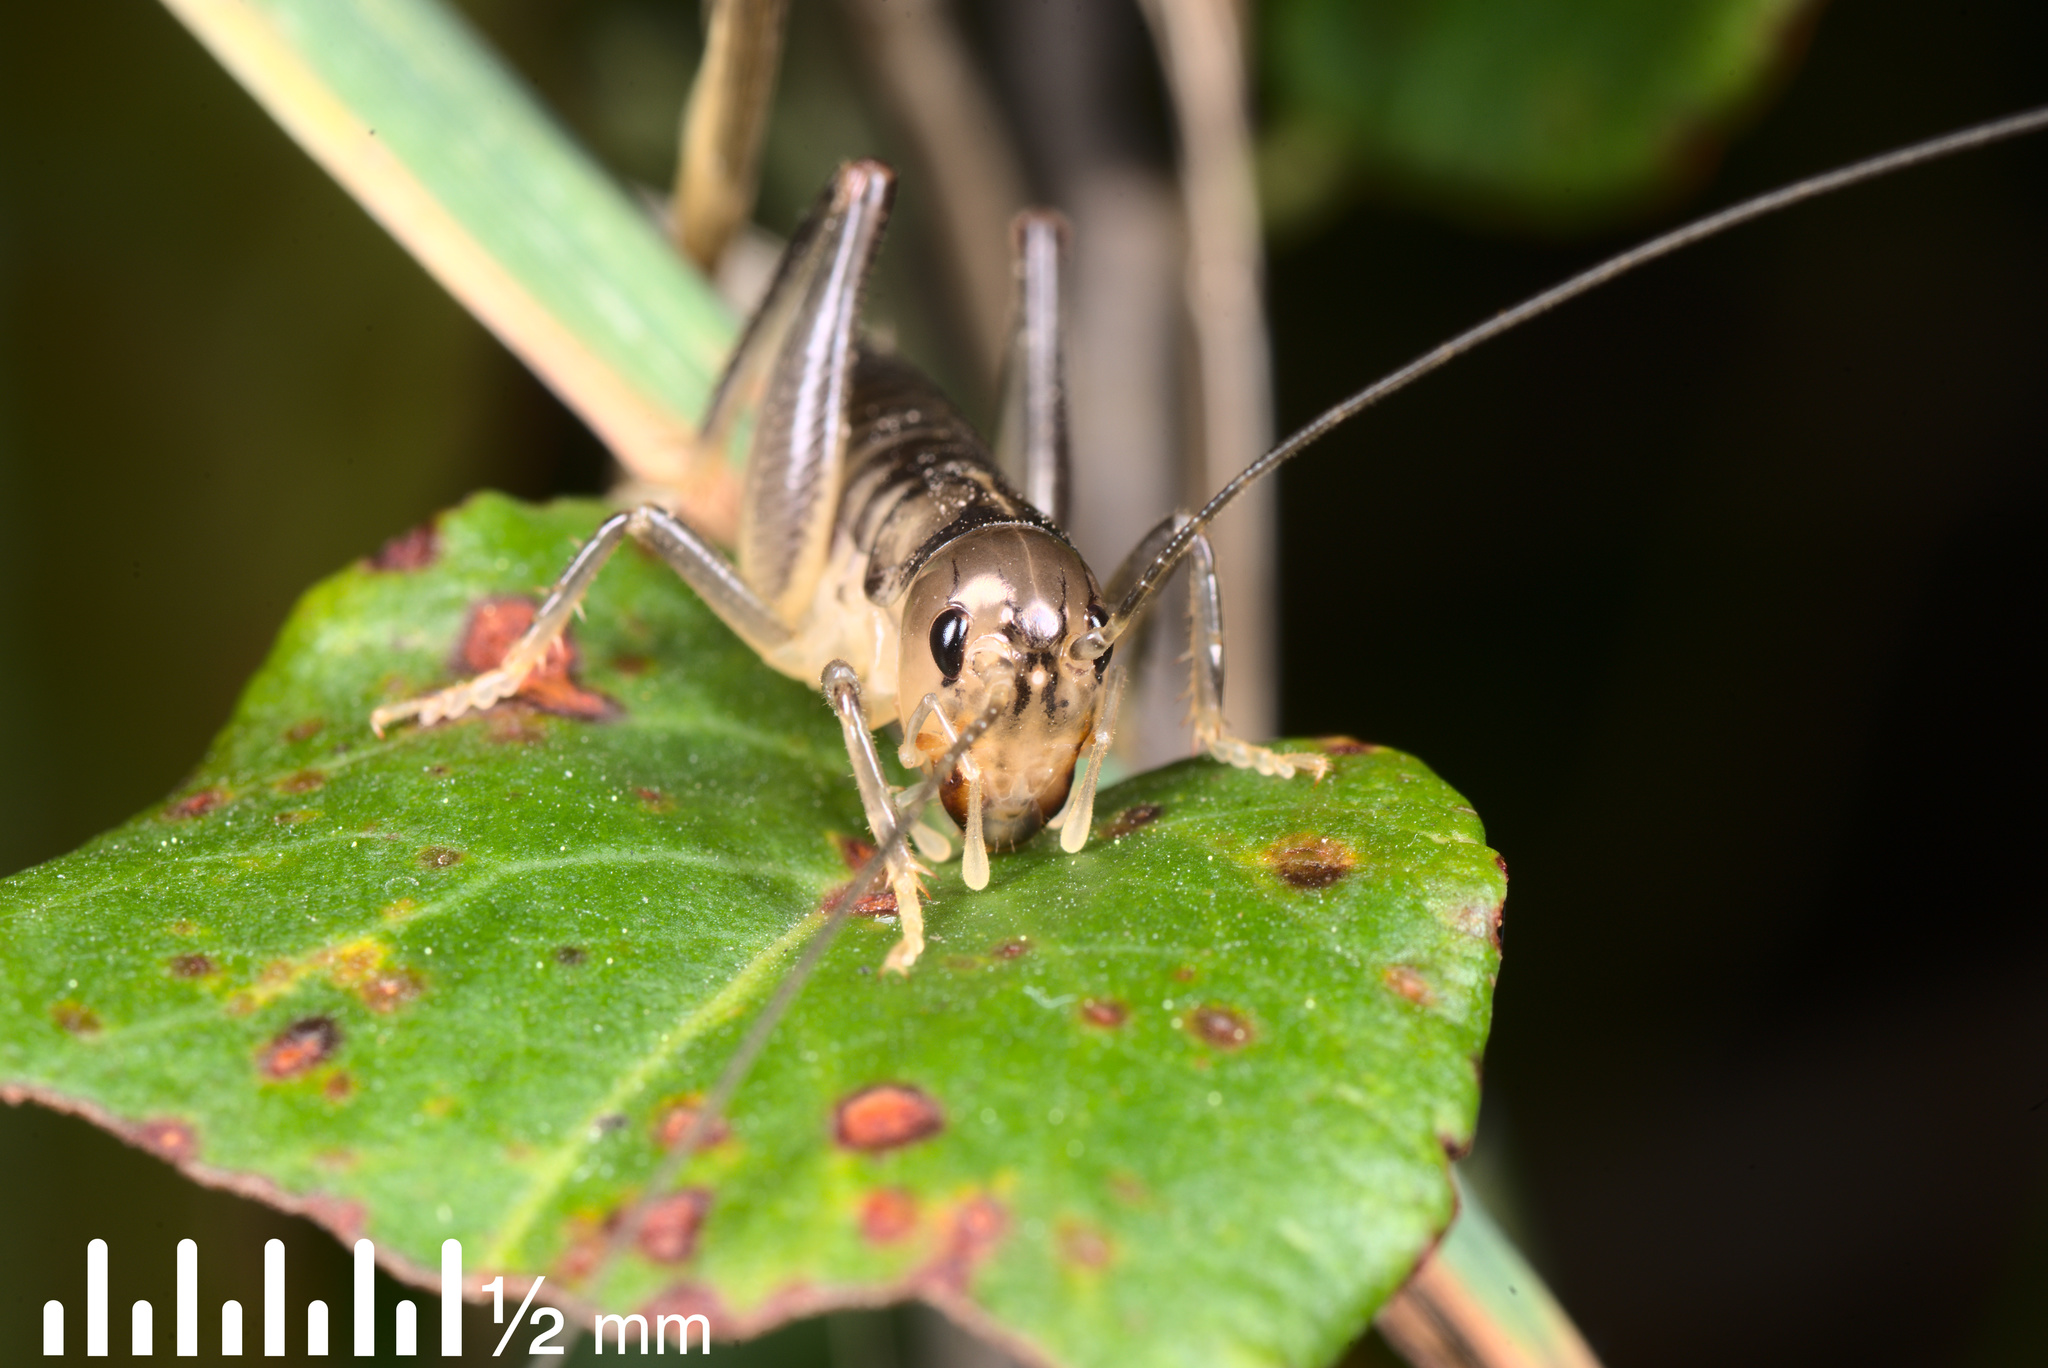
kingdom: Animalia
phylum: Arthropoda
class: Insecta
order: Orthoptera
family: Anostostomatidae
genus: Hemiandrus
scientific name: Hemiandrus celaeno
